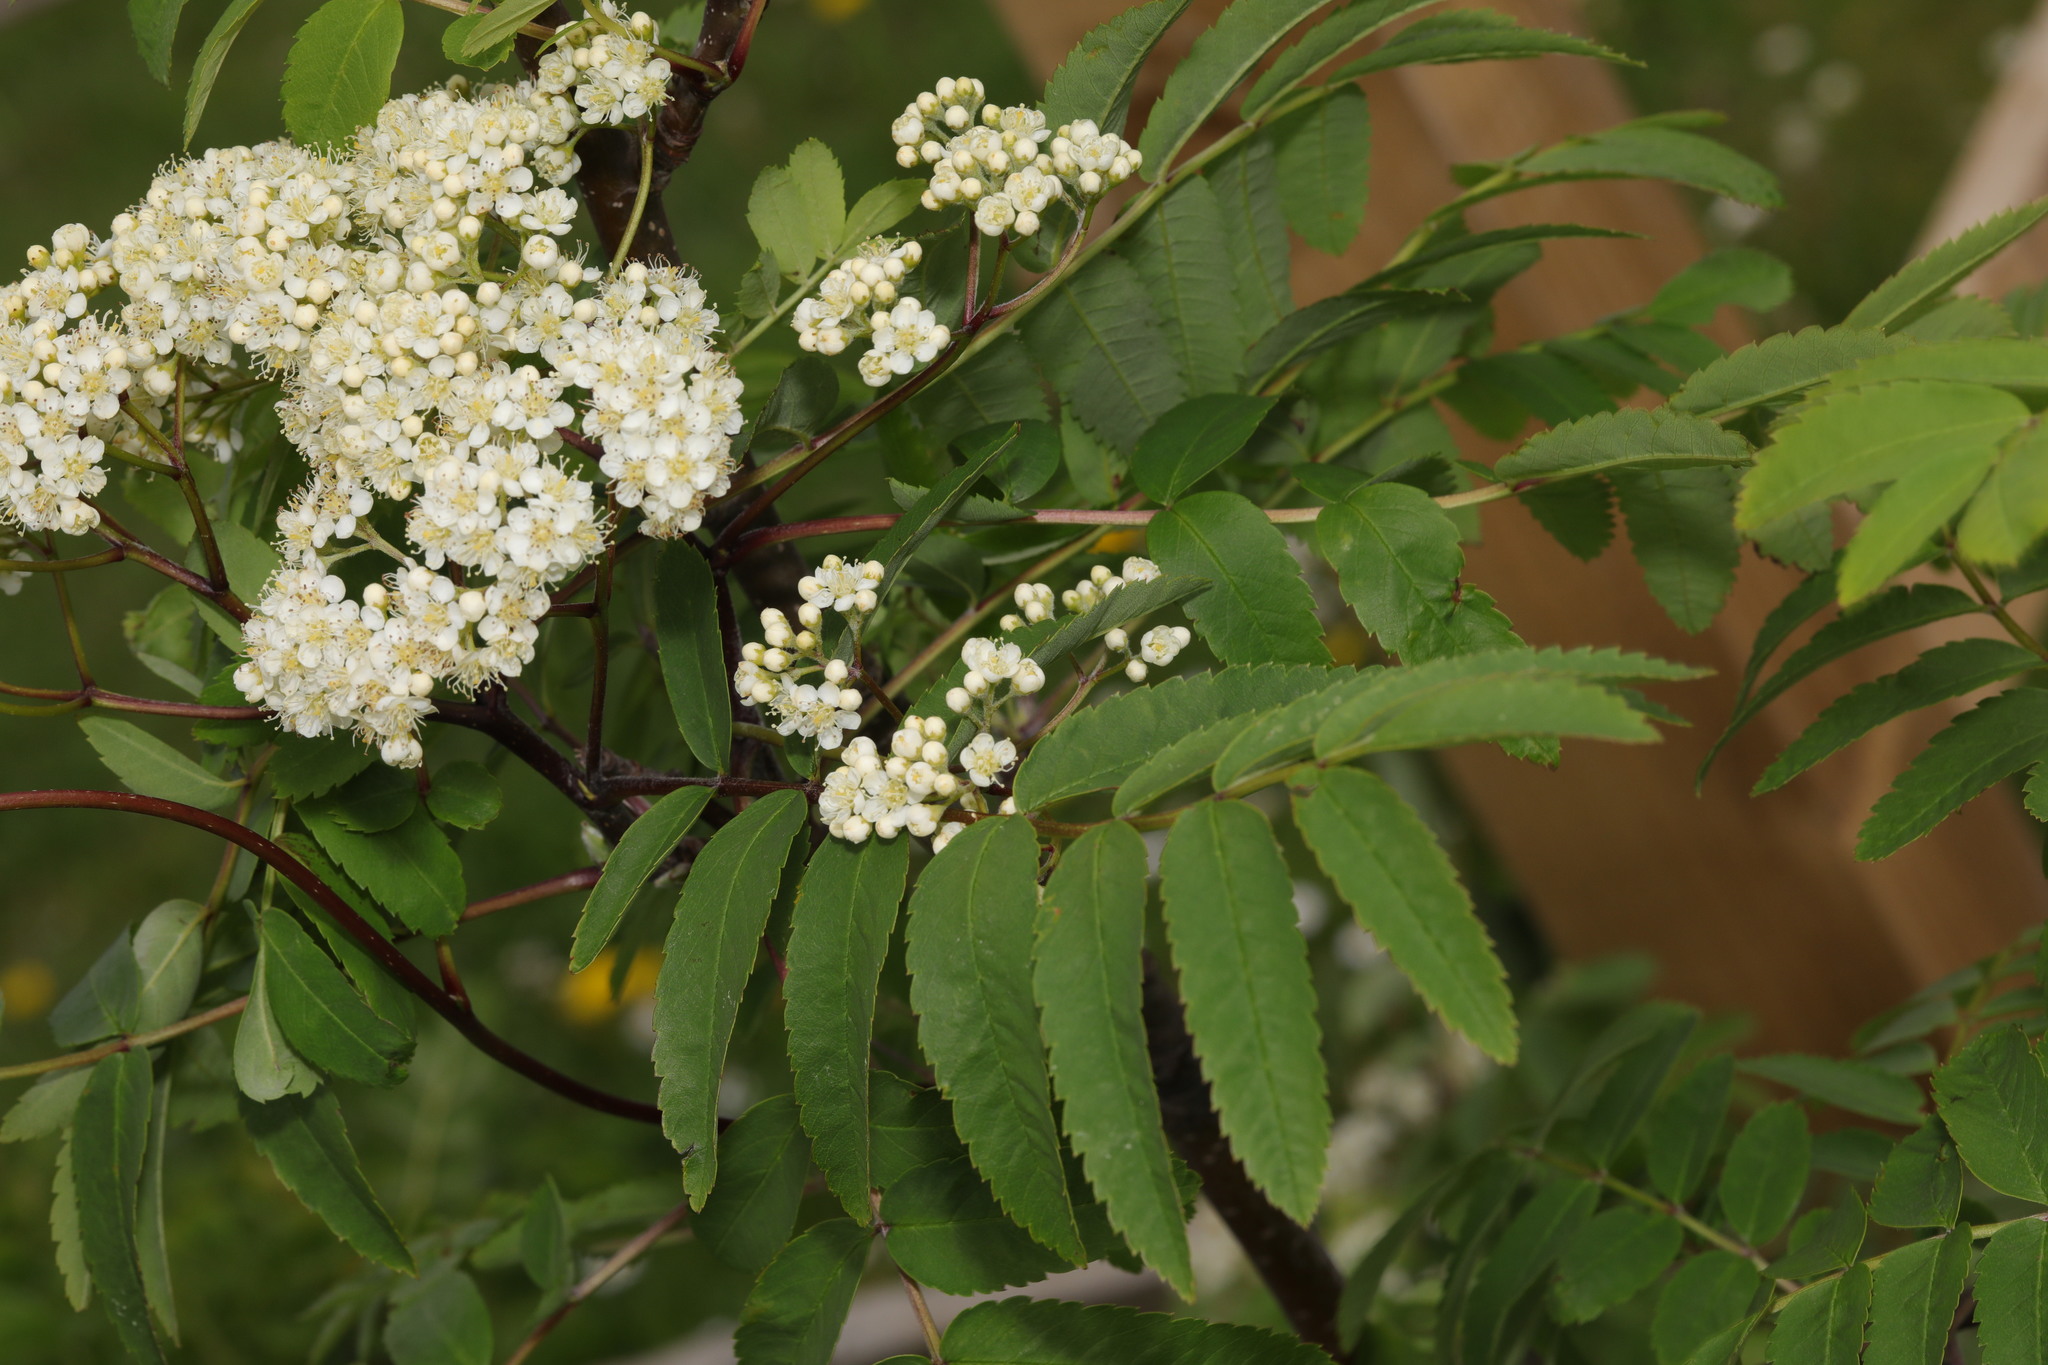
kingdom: Plantae
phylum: Tracheophyta
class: Magnoliopsida
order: Rosales
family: Rosaceae
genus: Sorbus
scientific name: Sorbus aucuparia
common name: Rowan
